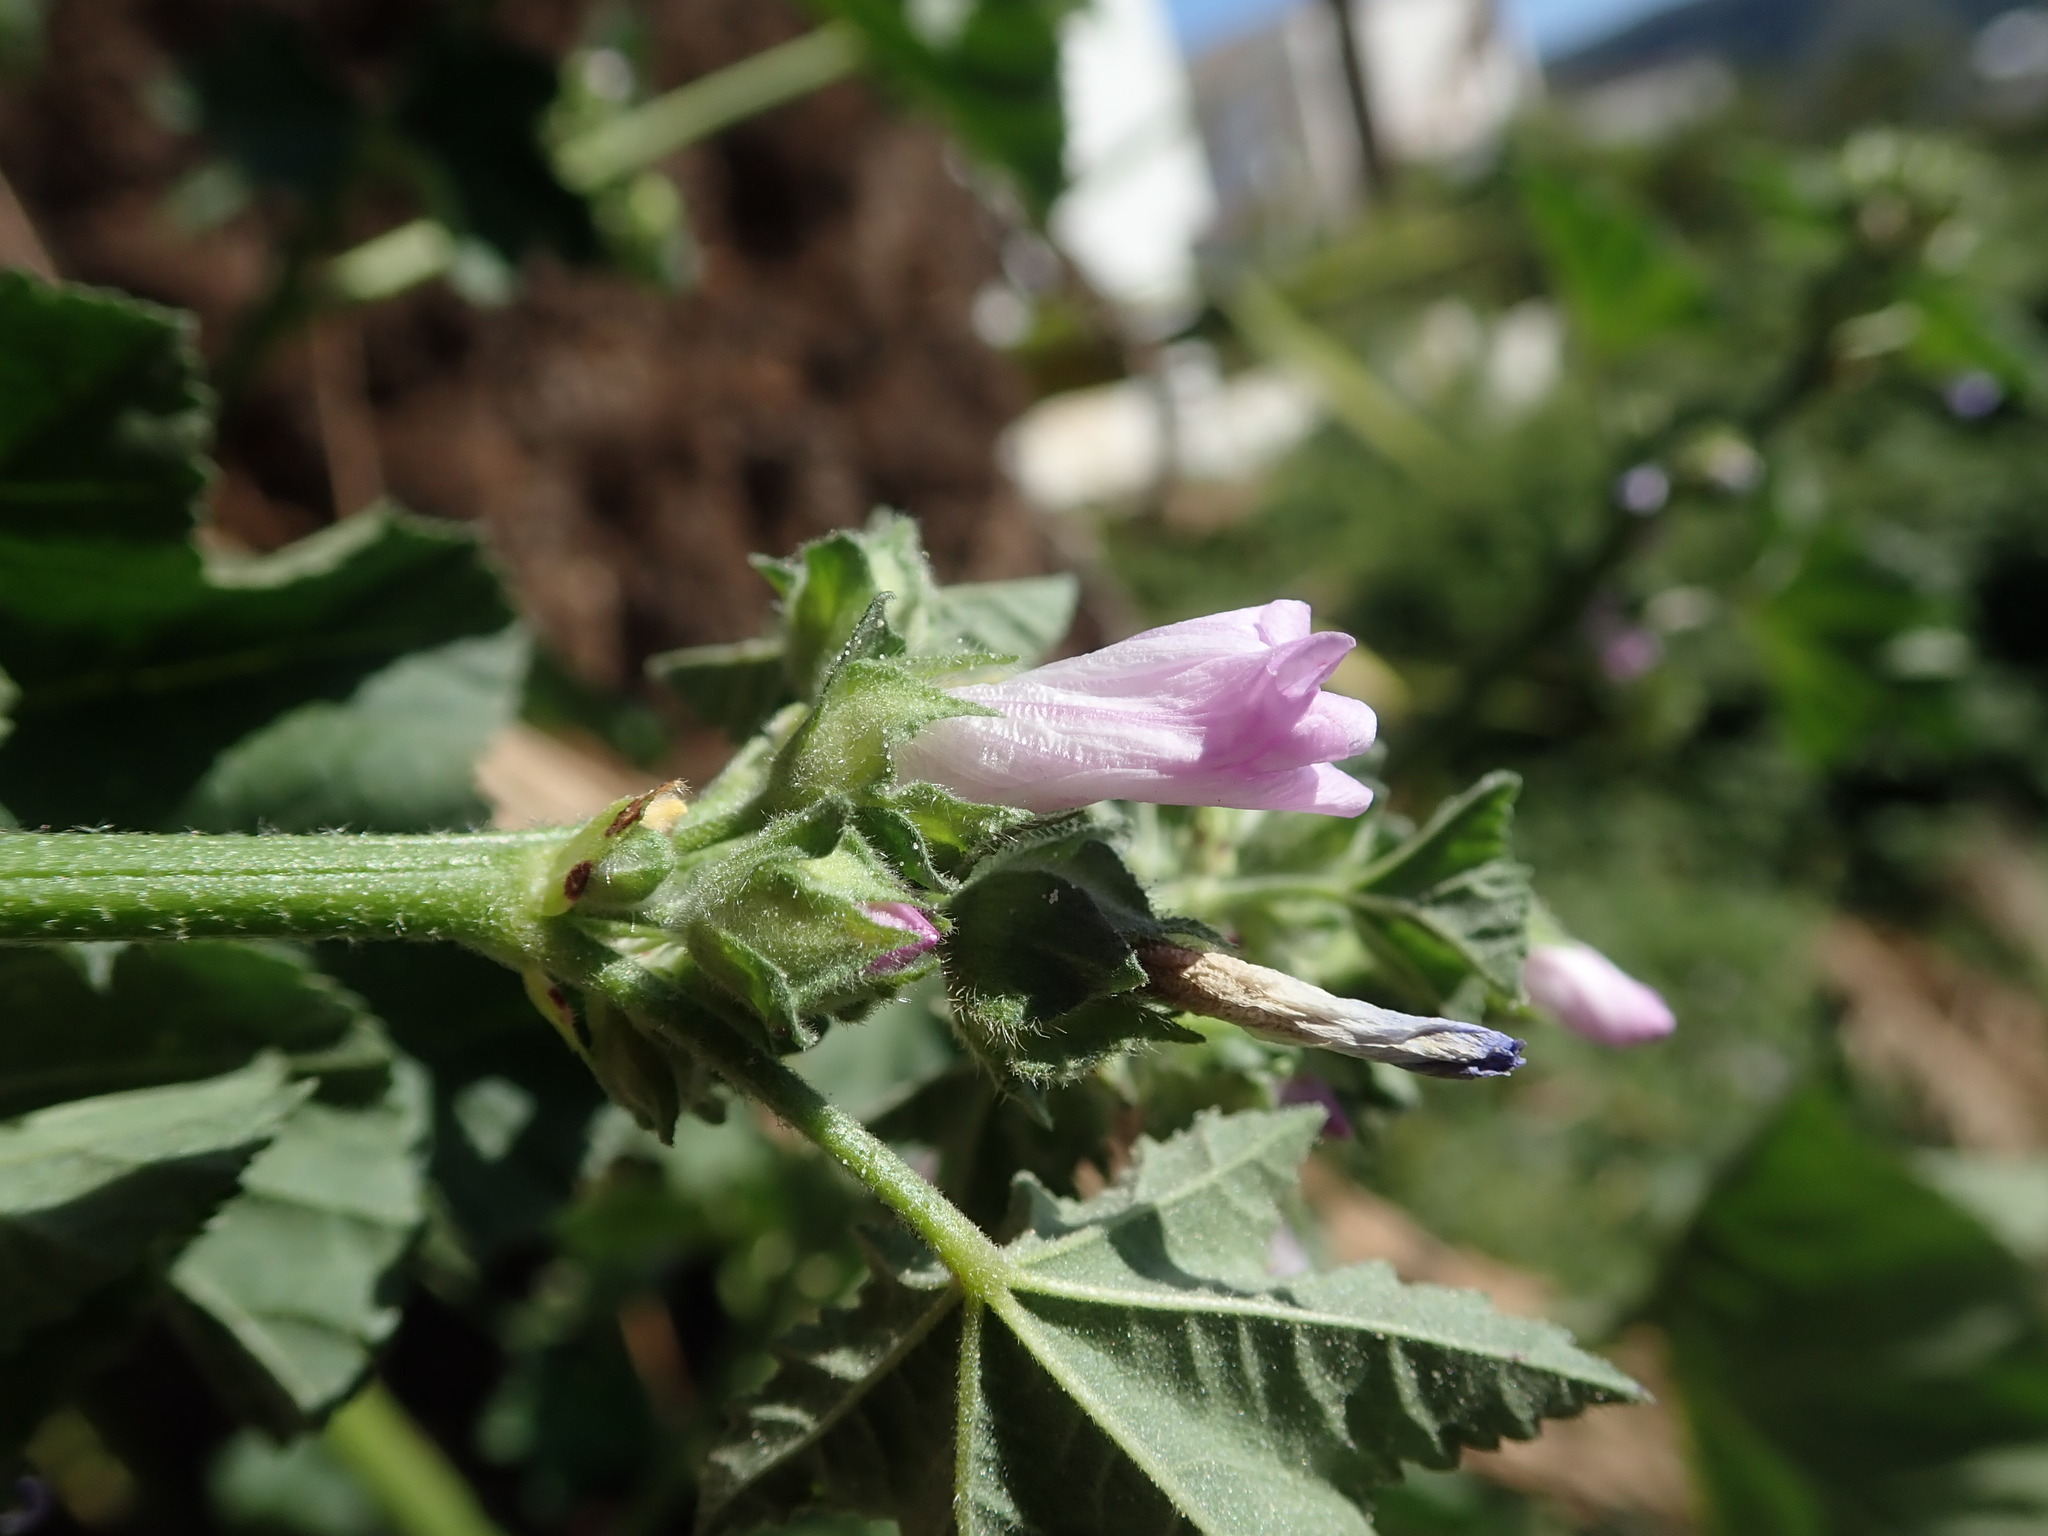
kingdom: Plantae
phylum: Tracheophyta
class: Magnoliopsida
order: Malvales
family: Malvaceae
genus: Malva
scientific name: Malva multiflora
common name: Cheeseweed
